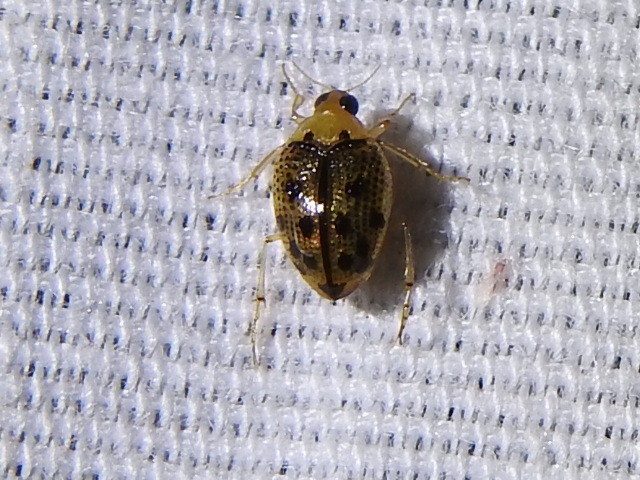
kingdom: Animalia
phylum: Arthropoda
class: Insecta
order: Coleoptera
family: Haliplidae
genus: Peltodytes
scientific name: Peltodytes litoralis
